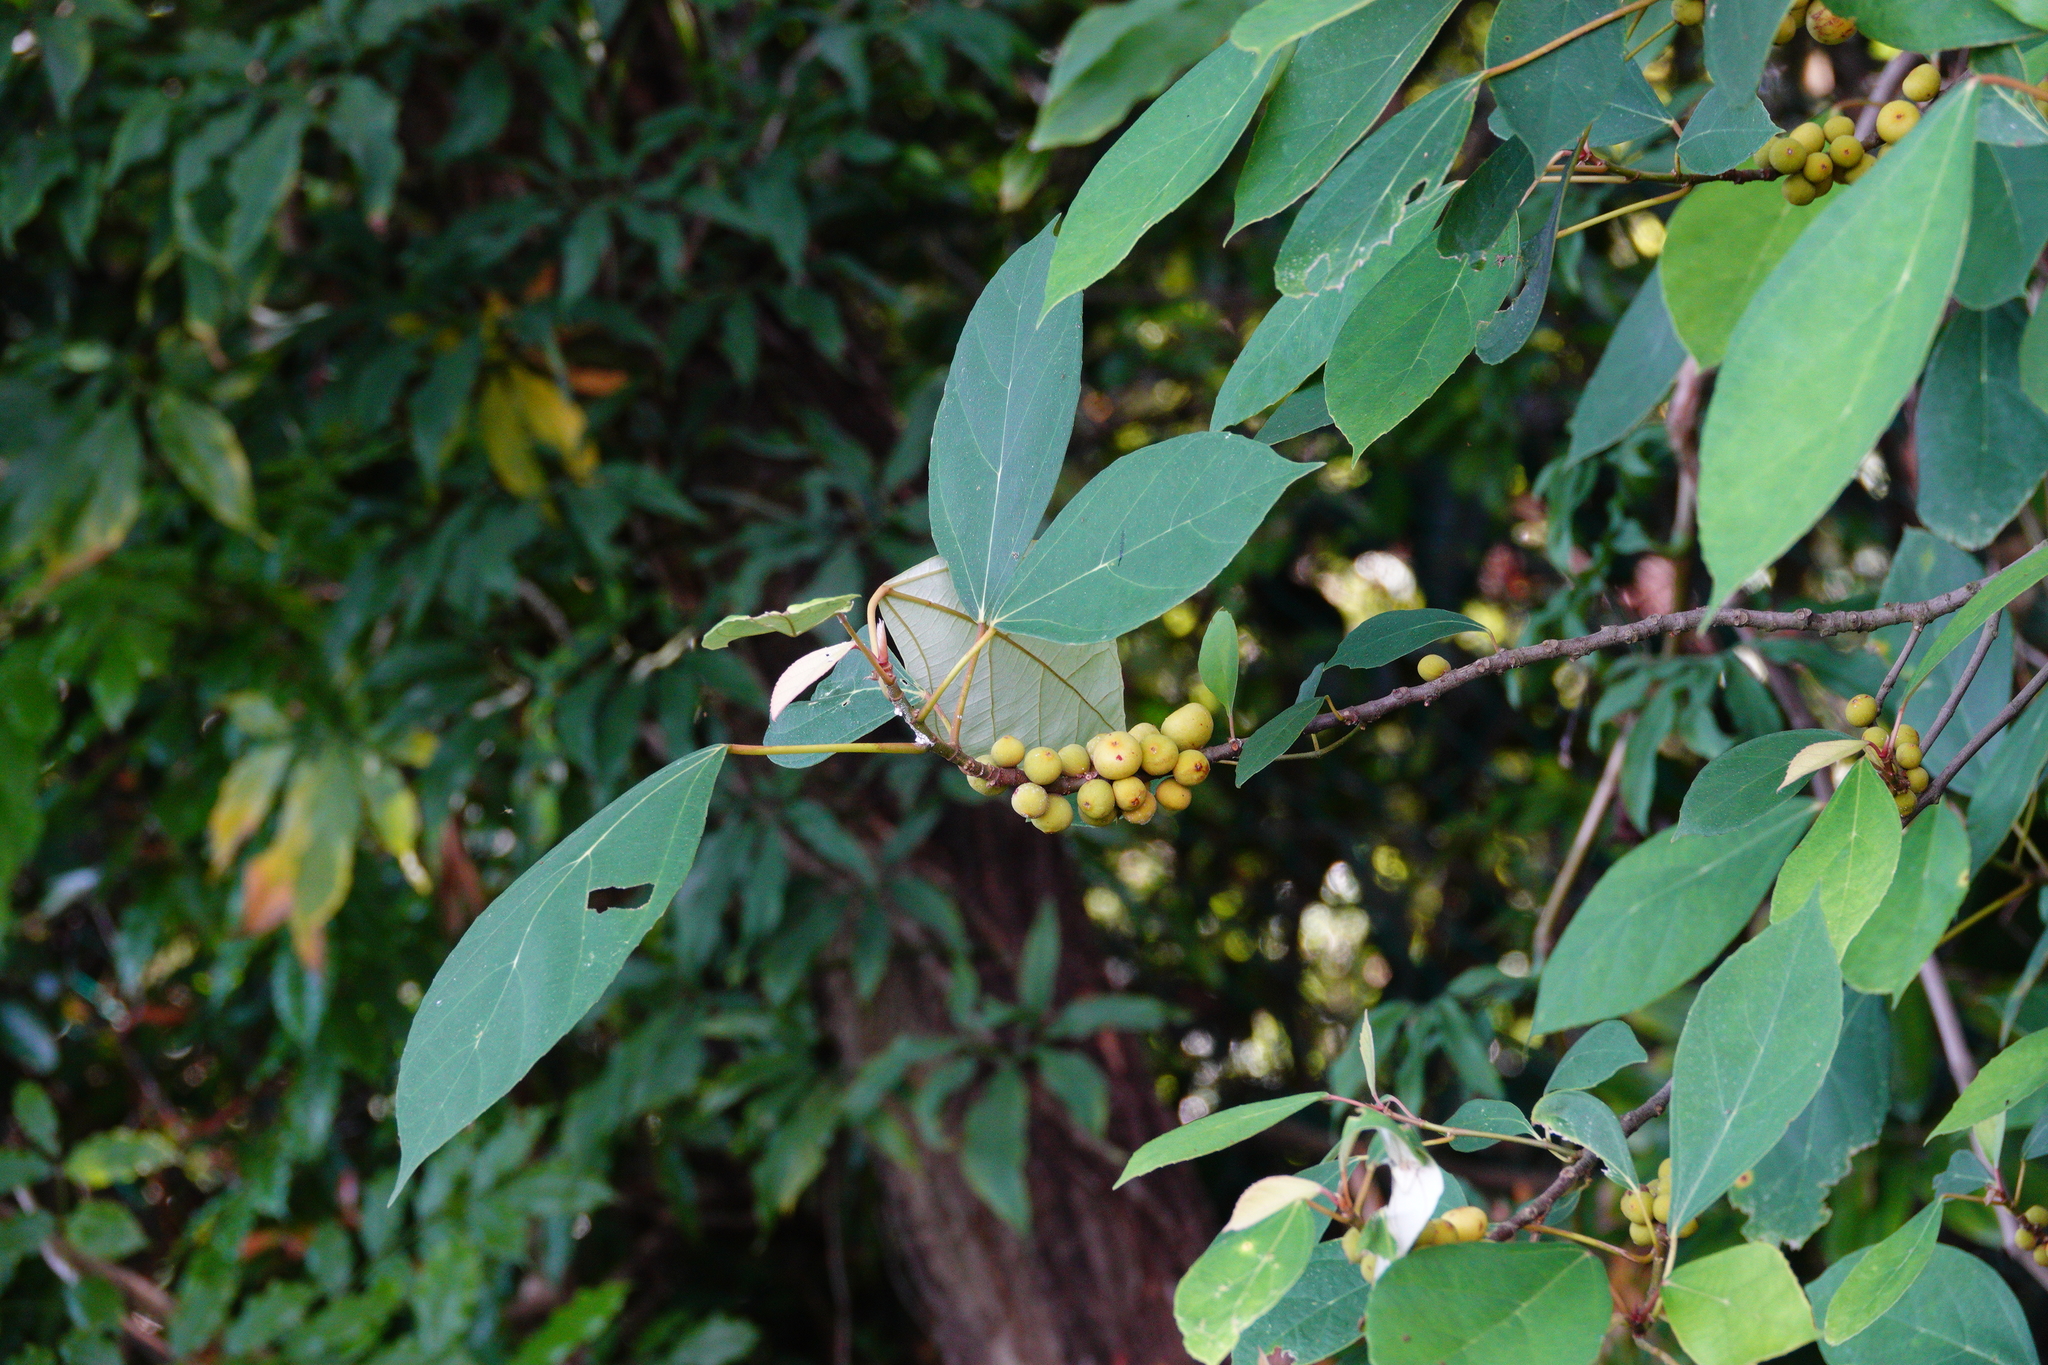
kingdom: Plantae
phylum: Tracheophyta
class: Magnoliopsida
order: Rosales
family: Moraceae
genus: Ficus
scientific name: Ficus grossularioides
